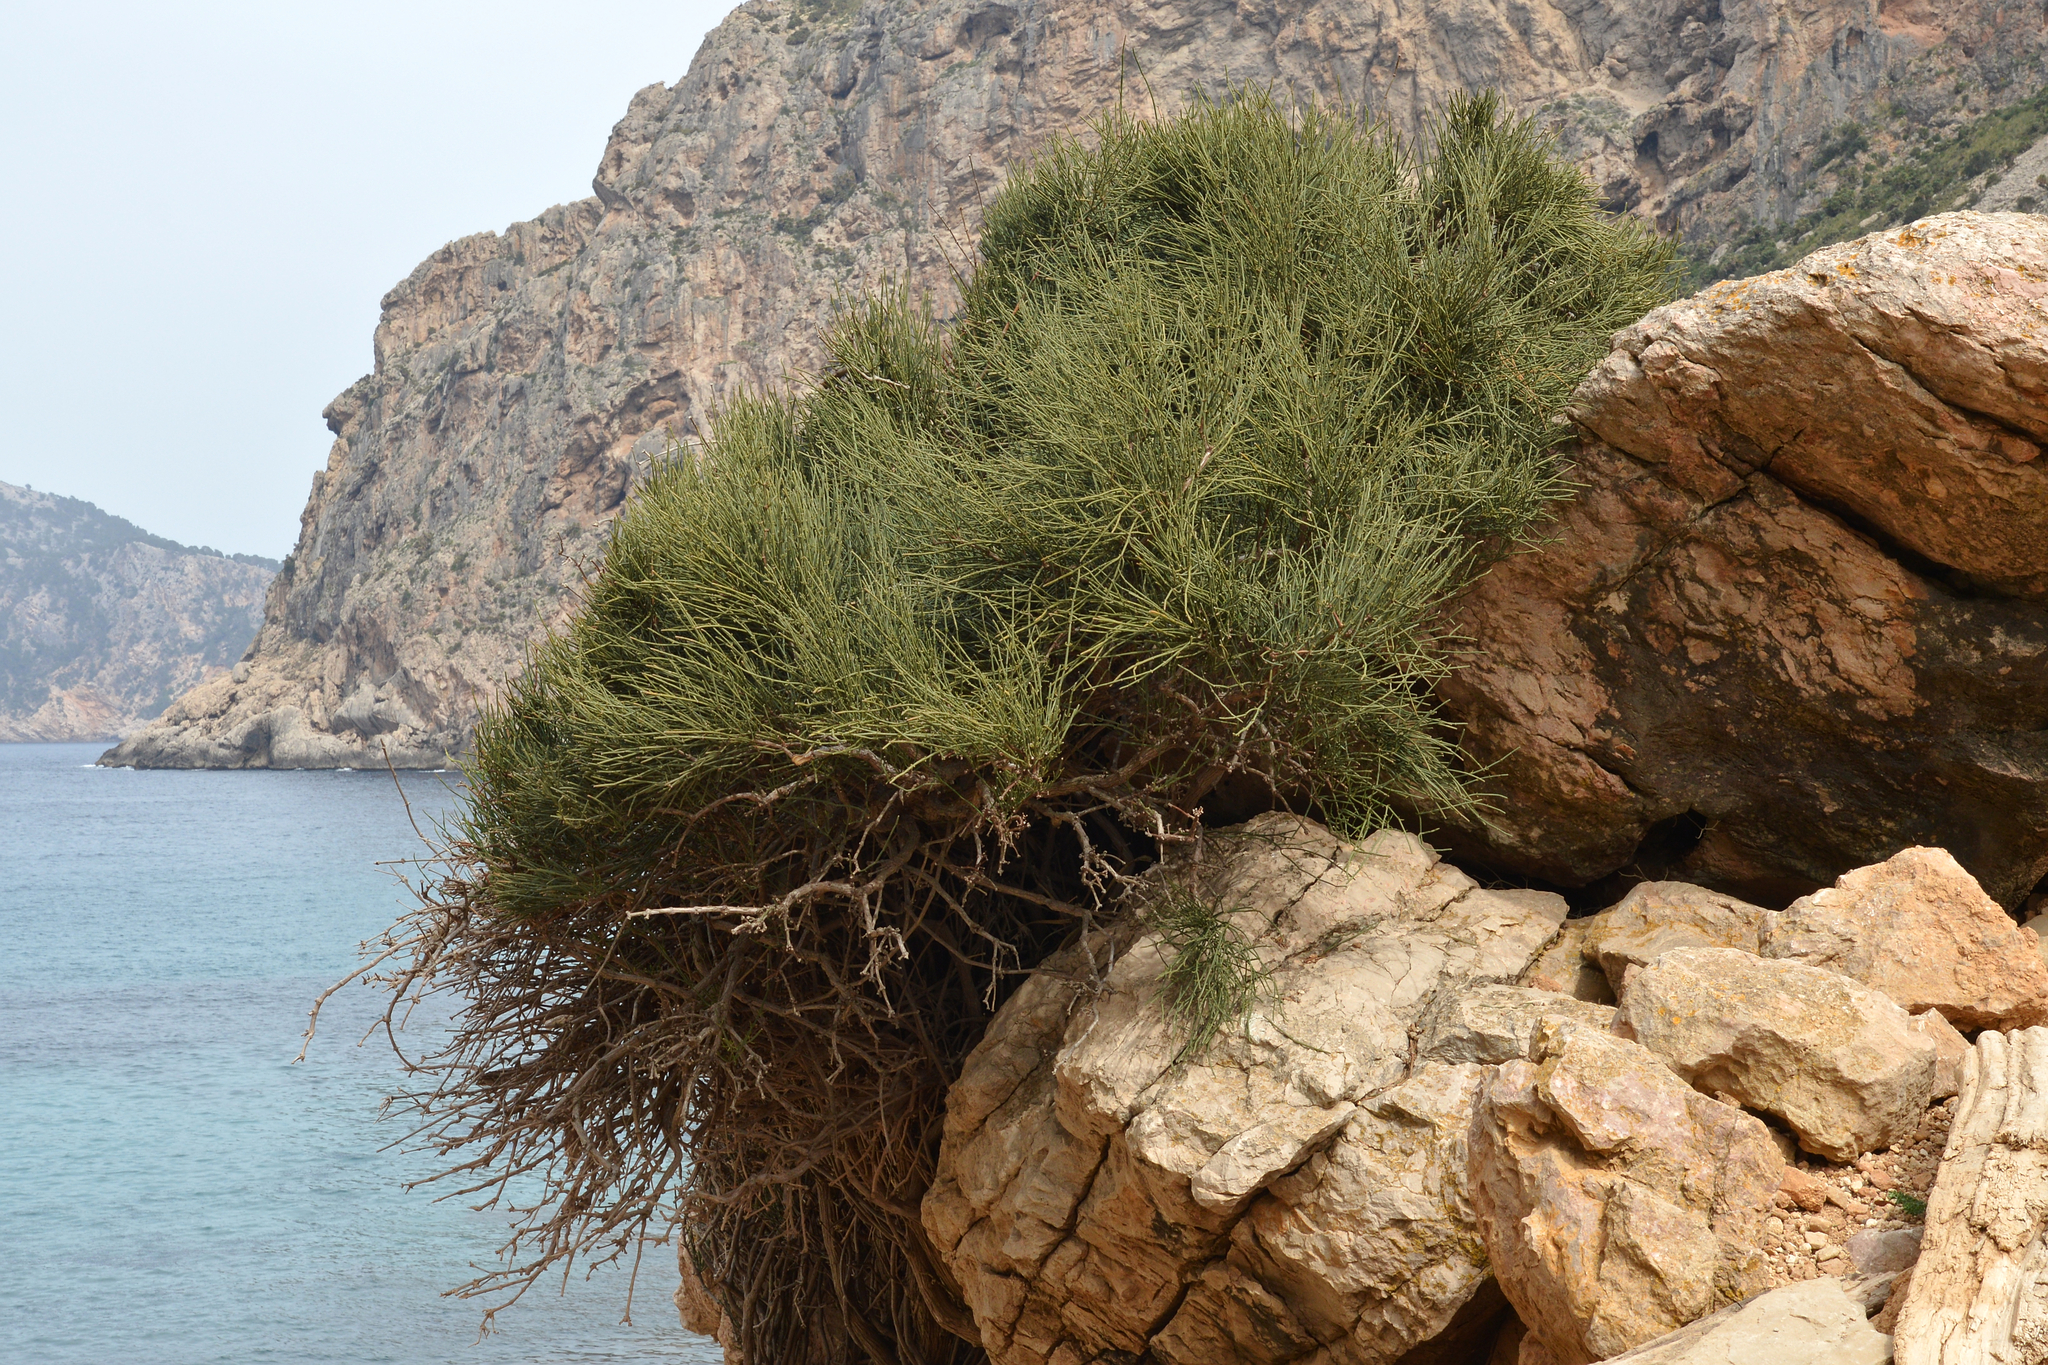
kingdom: Plantae
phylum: Tracheophyta
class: Gnetopsida
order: Ephedrales
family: Ephedraceae
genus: Ephedra
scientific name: Ephedra fragilis
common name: Joint pine
